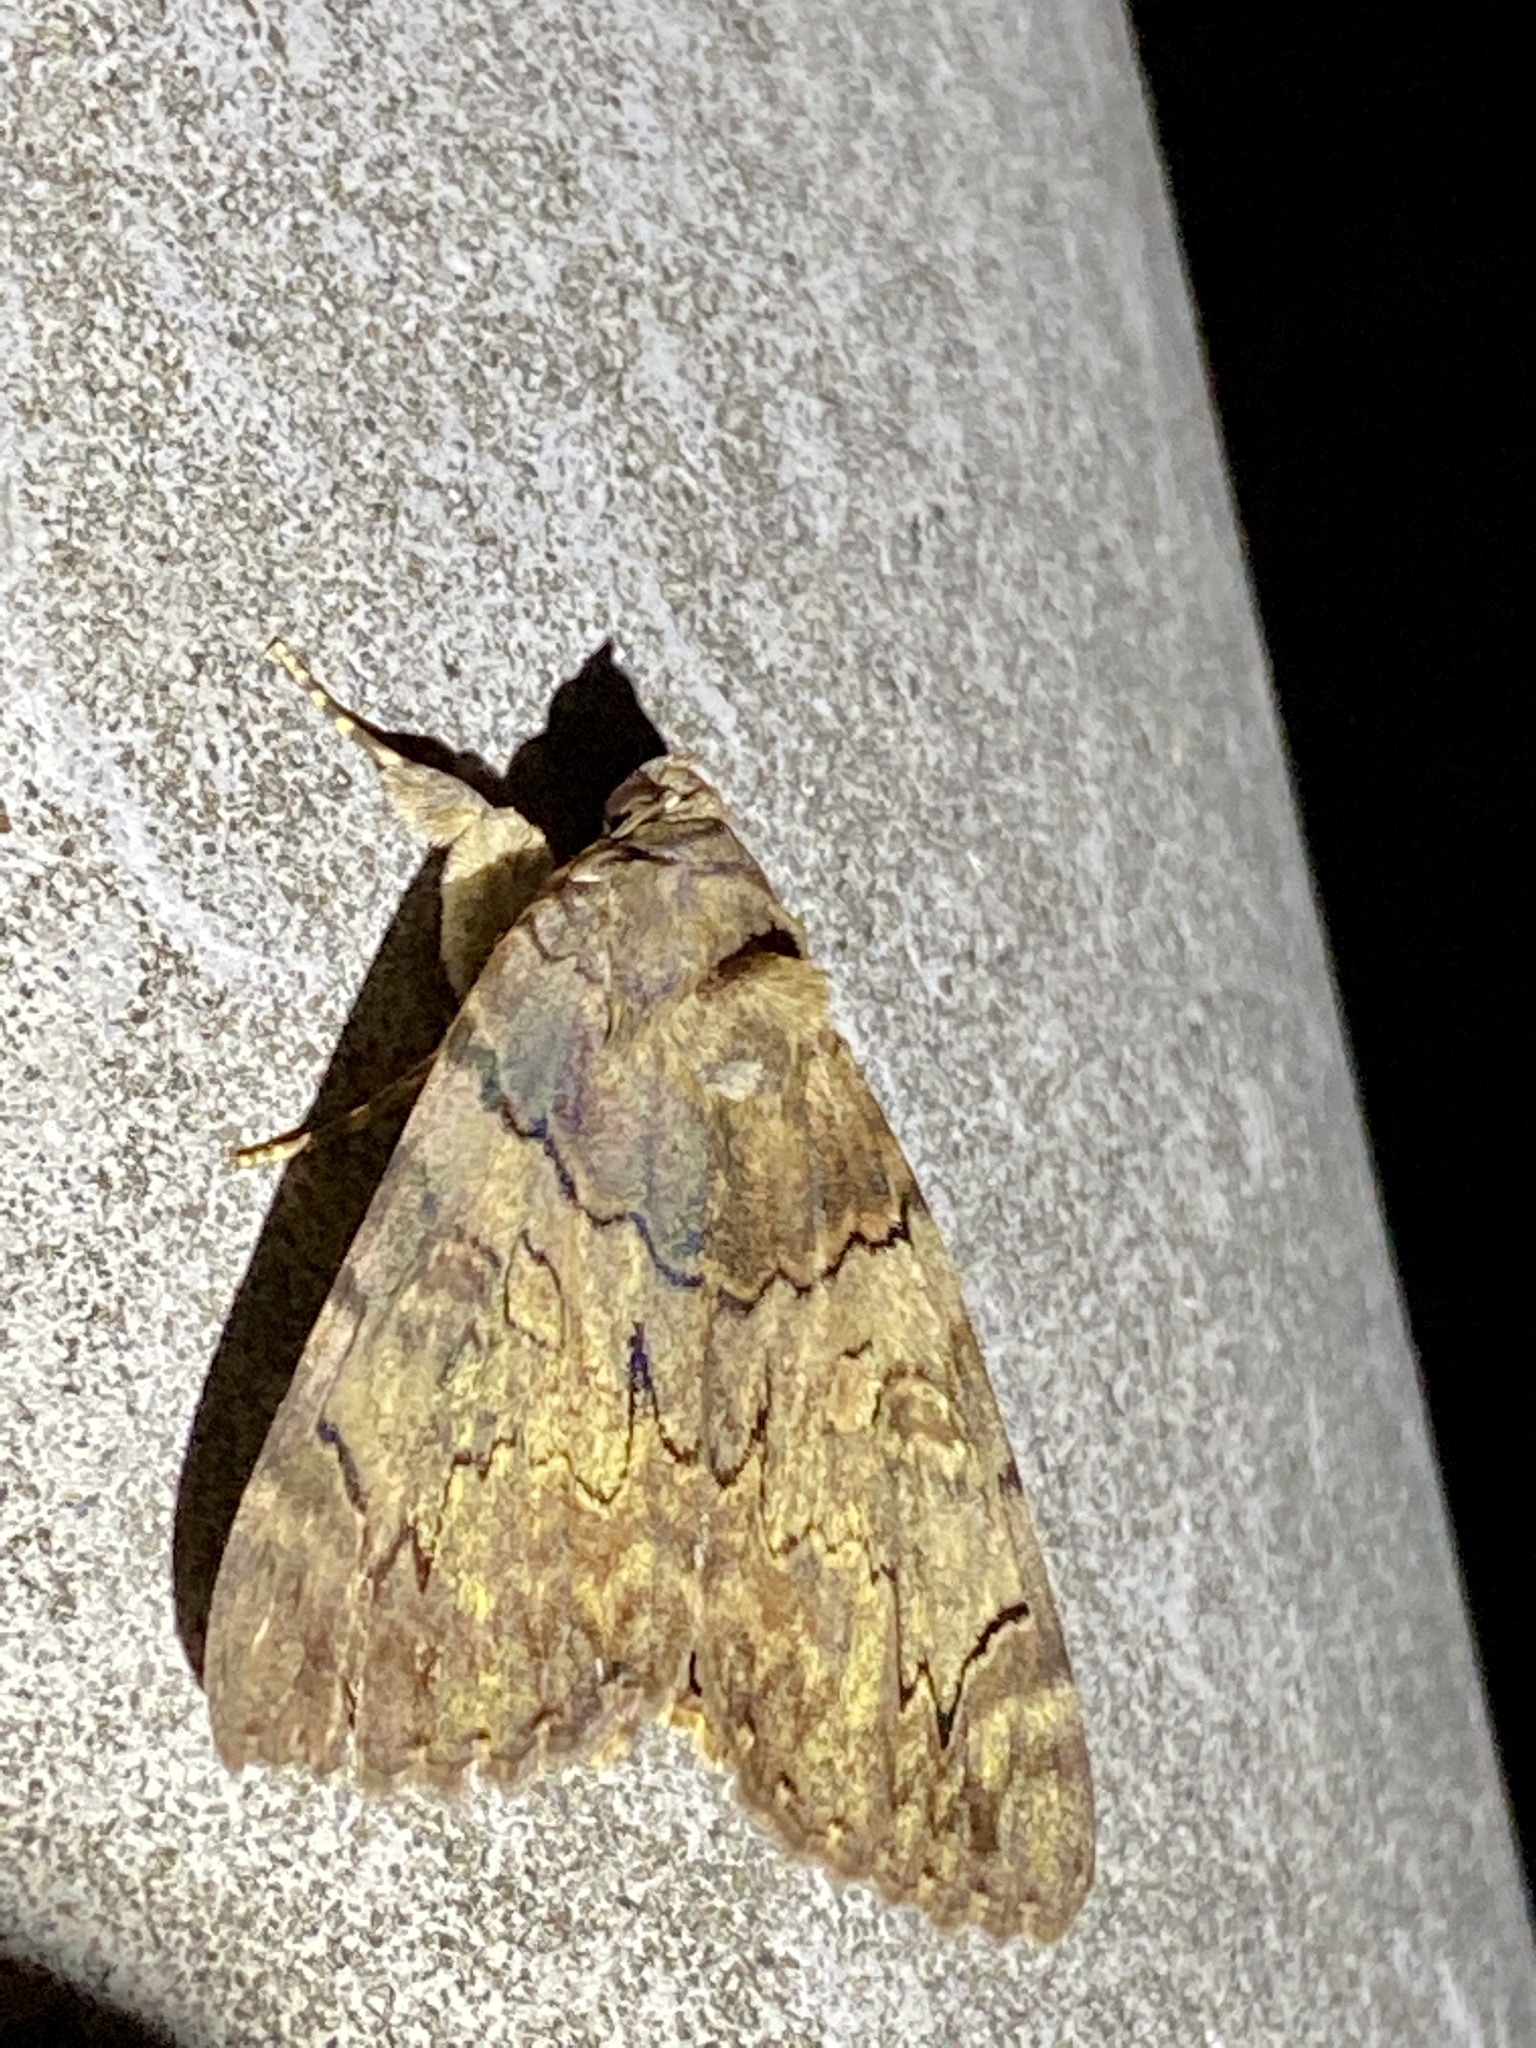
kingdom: Animalia
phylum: Arthropoda
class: Insecta
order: Lepidoptera
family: Erebidae
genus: Catocala
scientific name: Catocala patala
